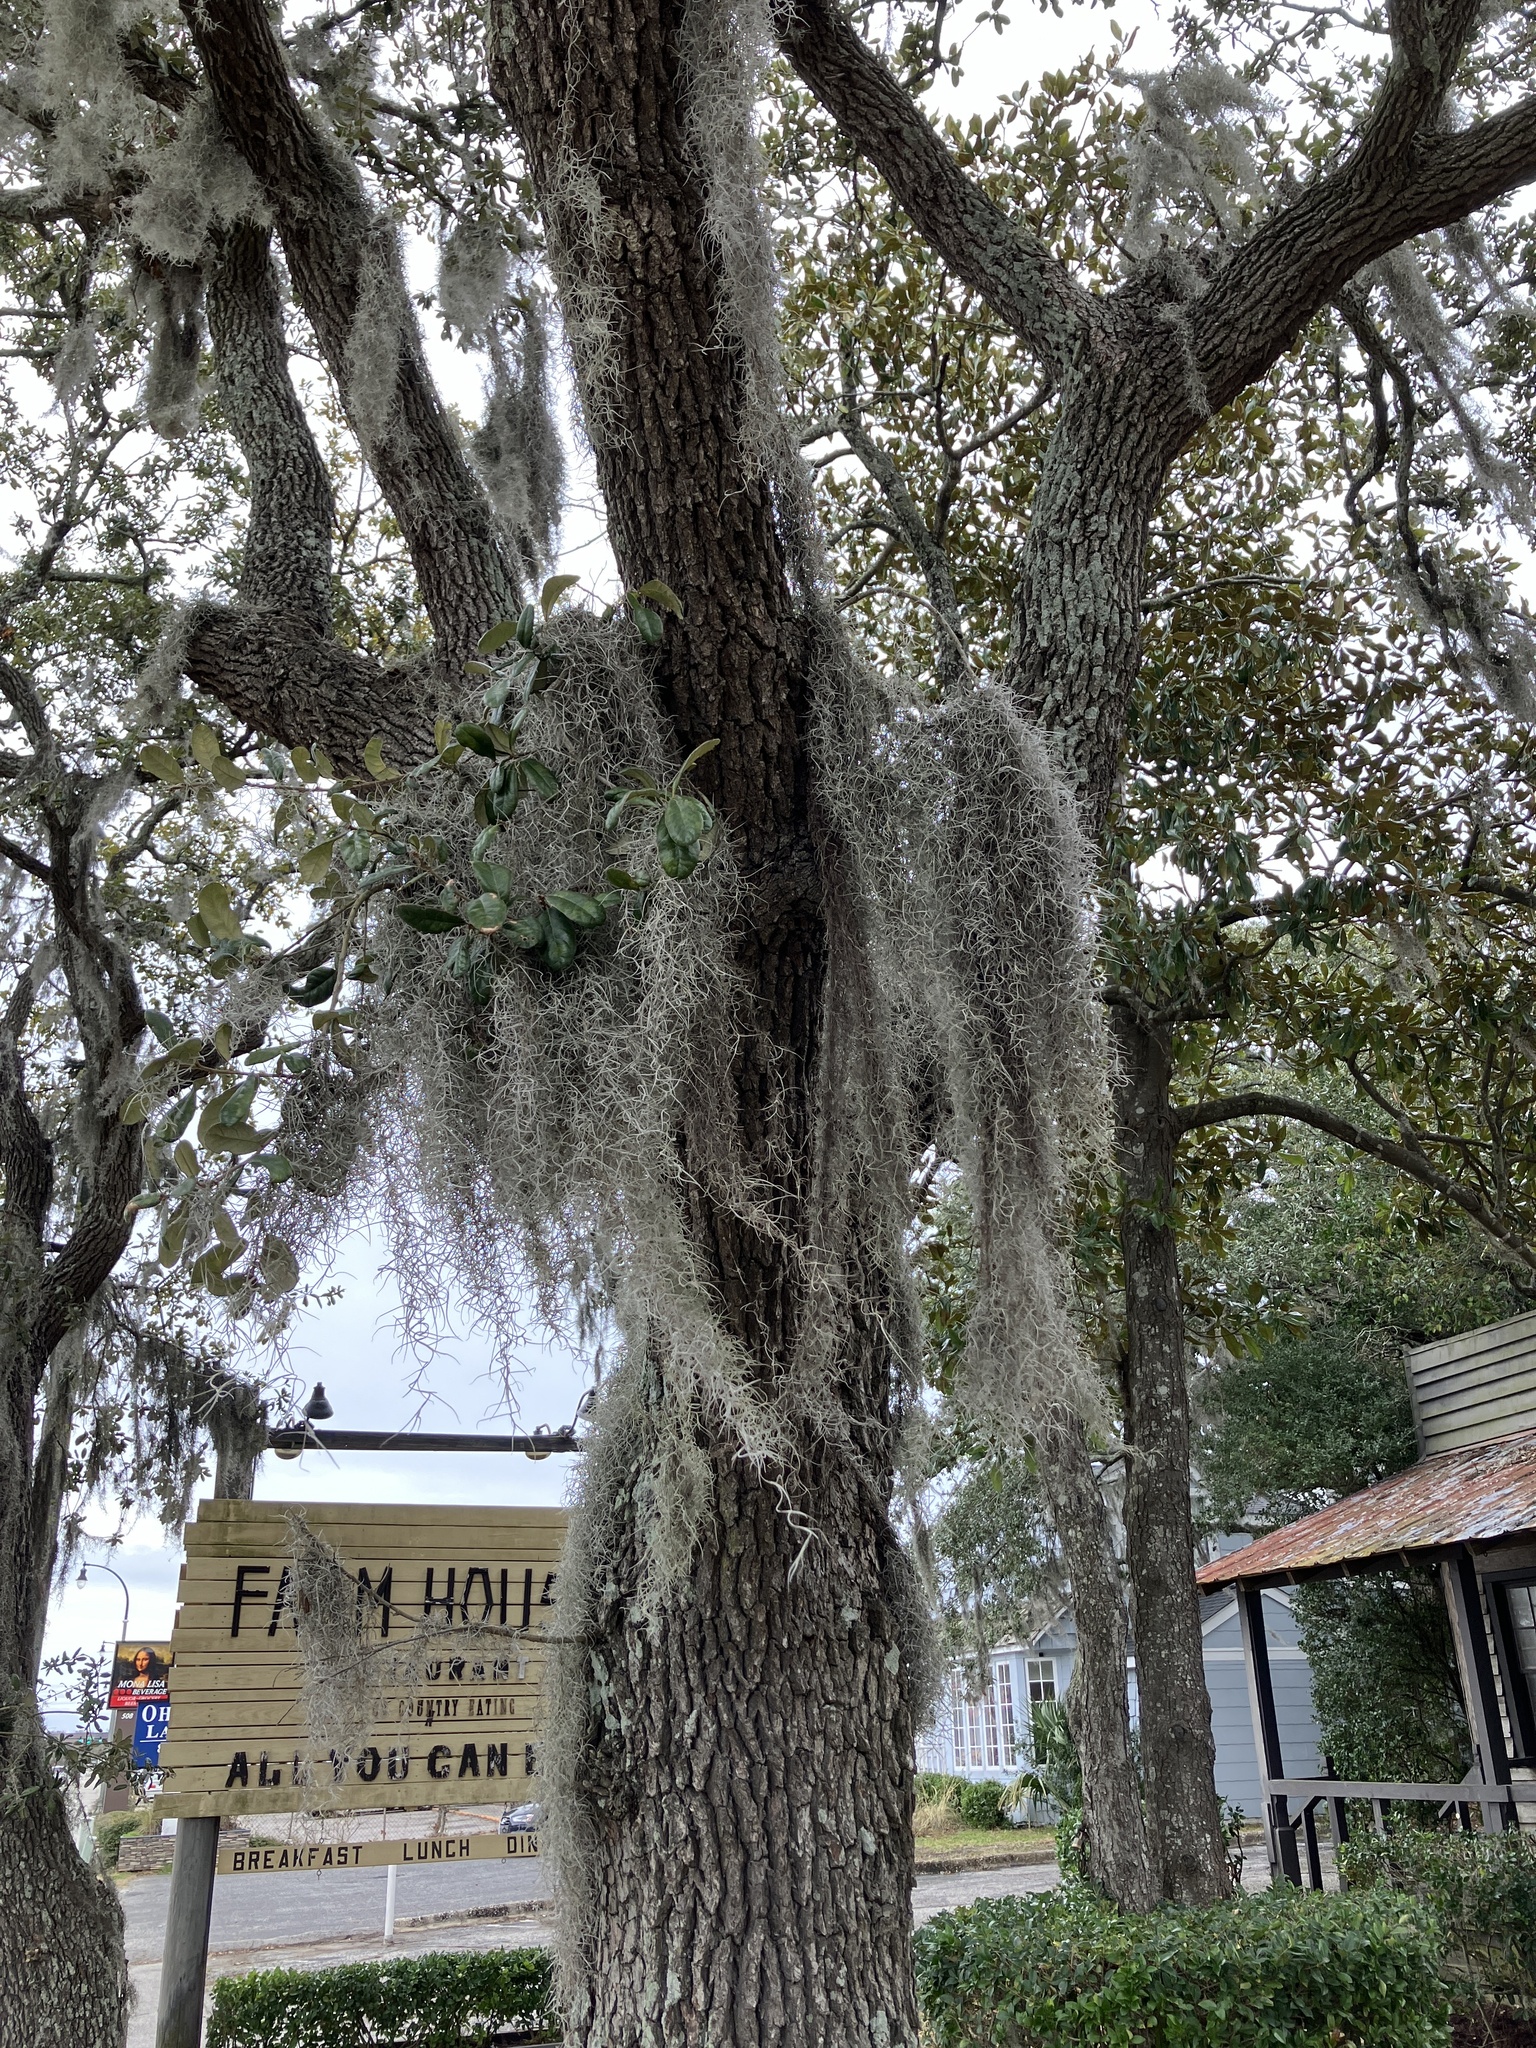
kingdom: Plantae
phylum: Tracheophyta
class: Liliopsida
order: Poales
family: Bromeliaceae
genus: Tillandsia
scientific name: Tillandsia usneoides
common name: Spanish moss
